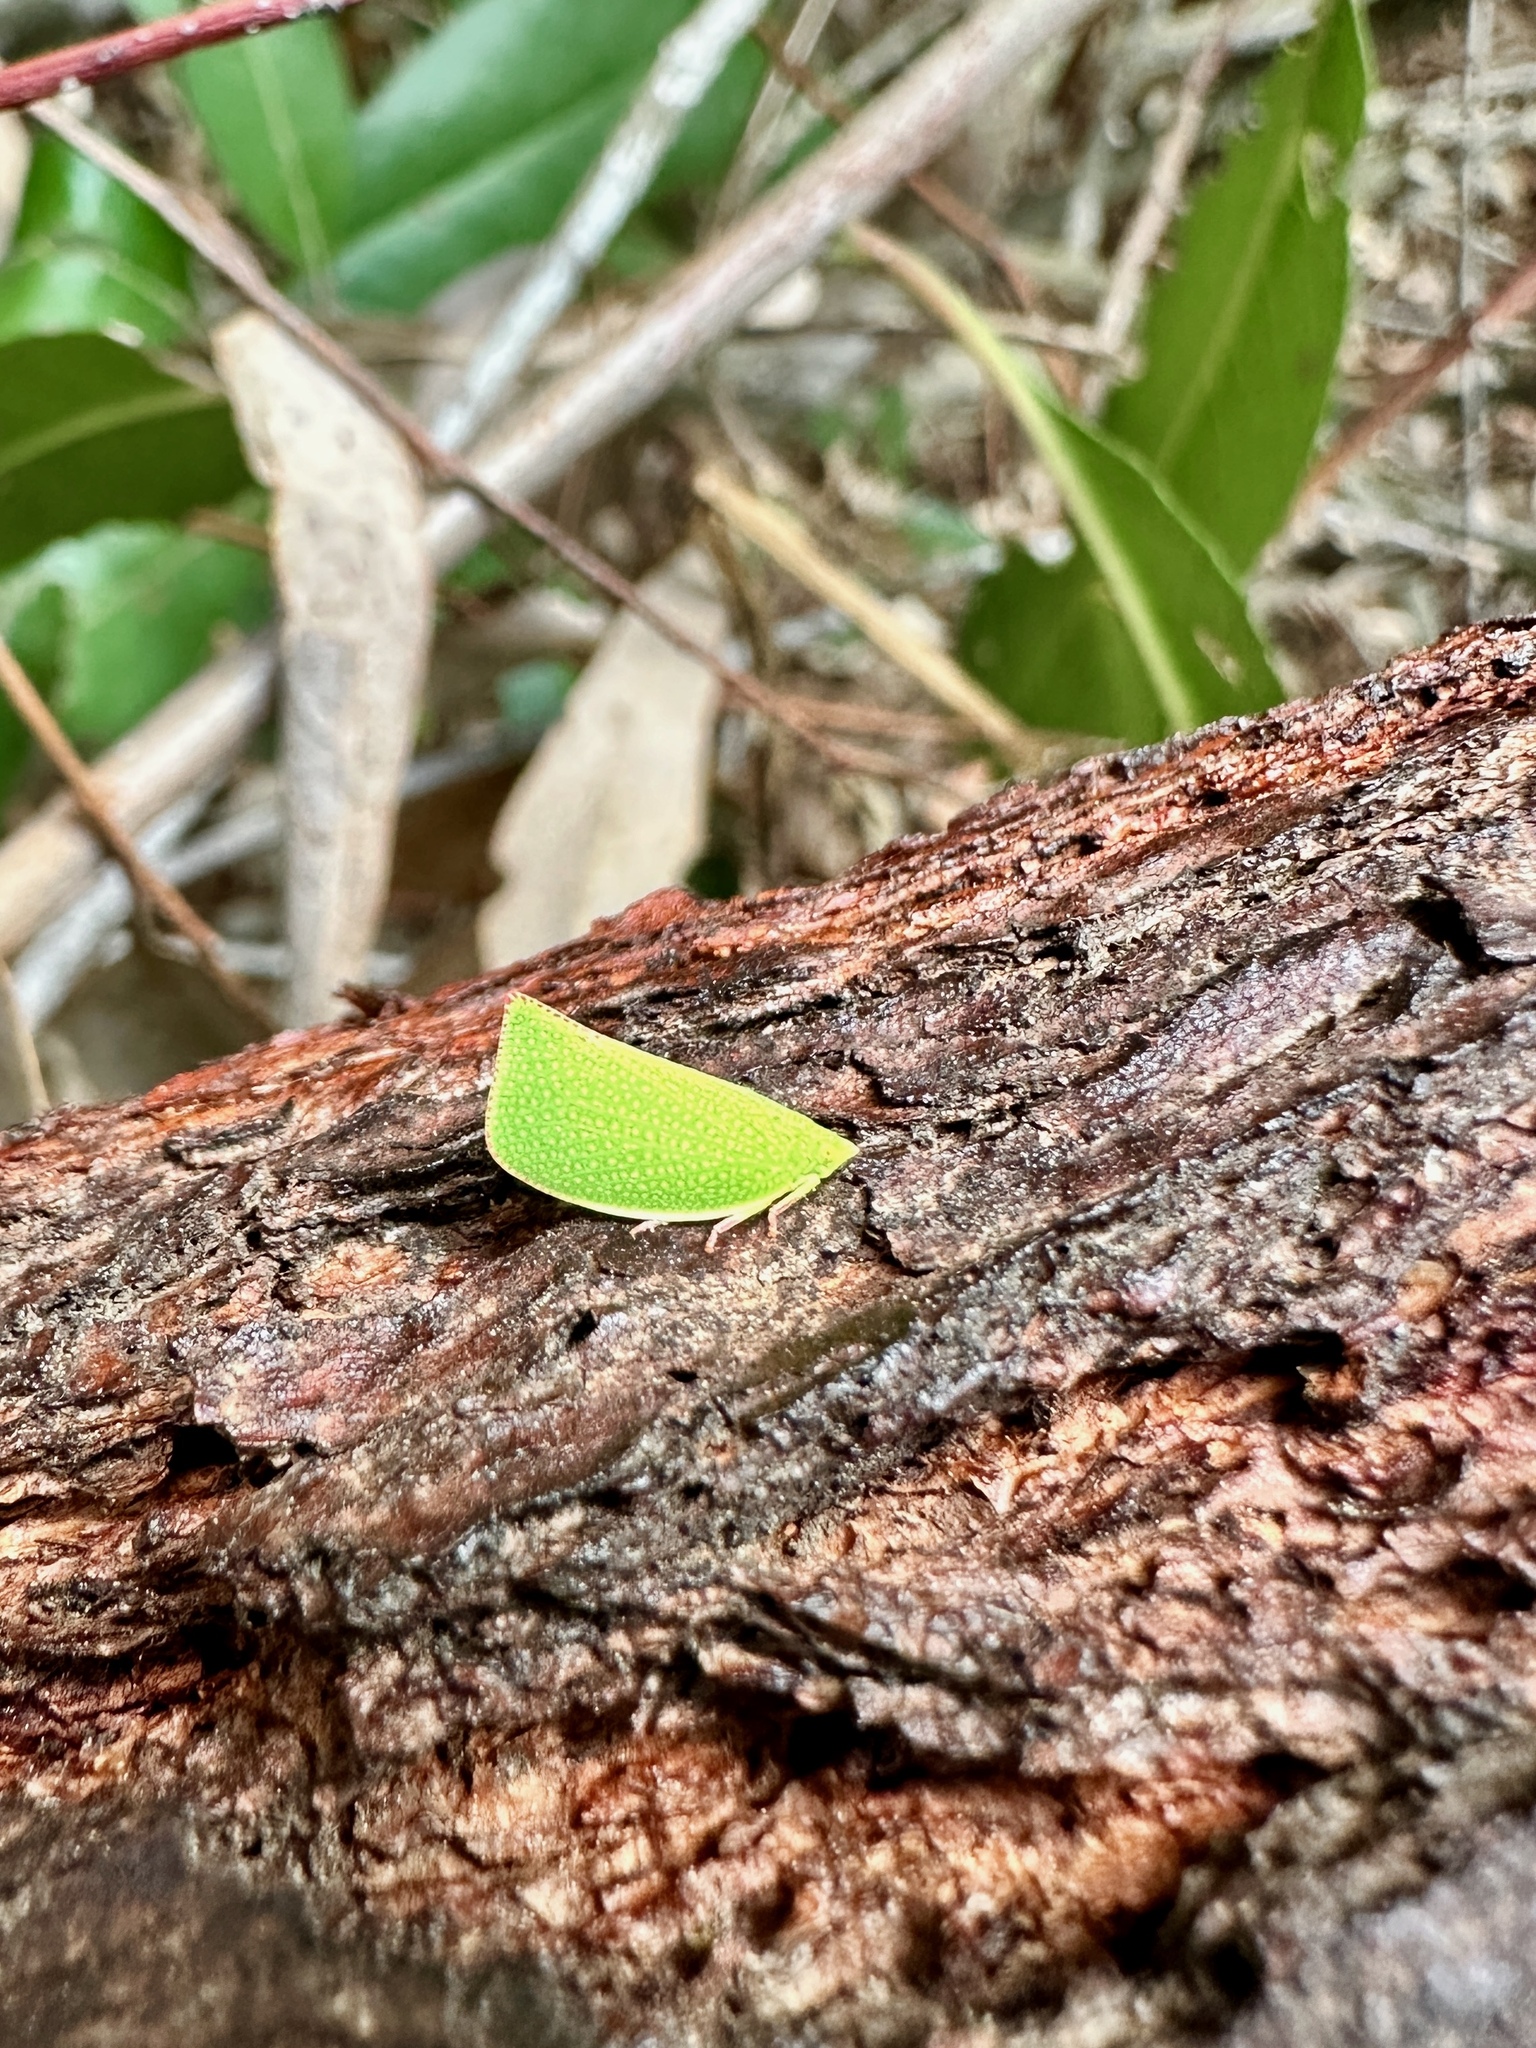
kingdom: Animalia
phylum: Arthropoda
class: Insecta
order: Hemiptera
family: Flatidae
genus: Siphanta
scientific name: Siphanta acuta
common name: Torpedo bug
